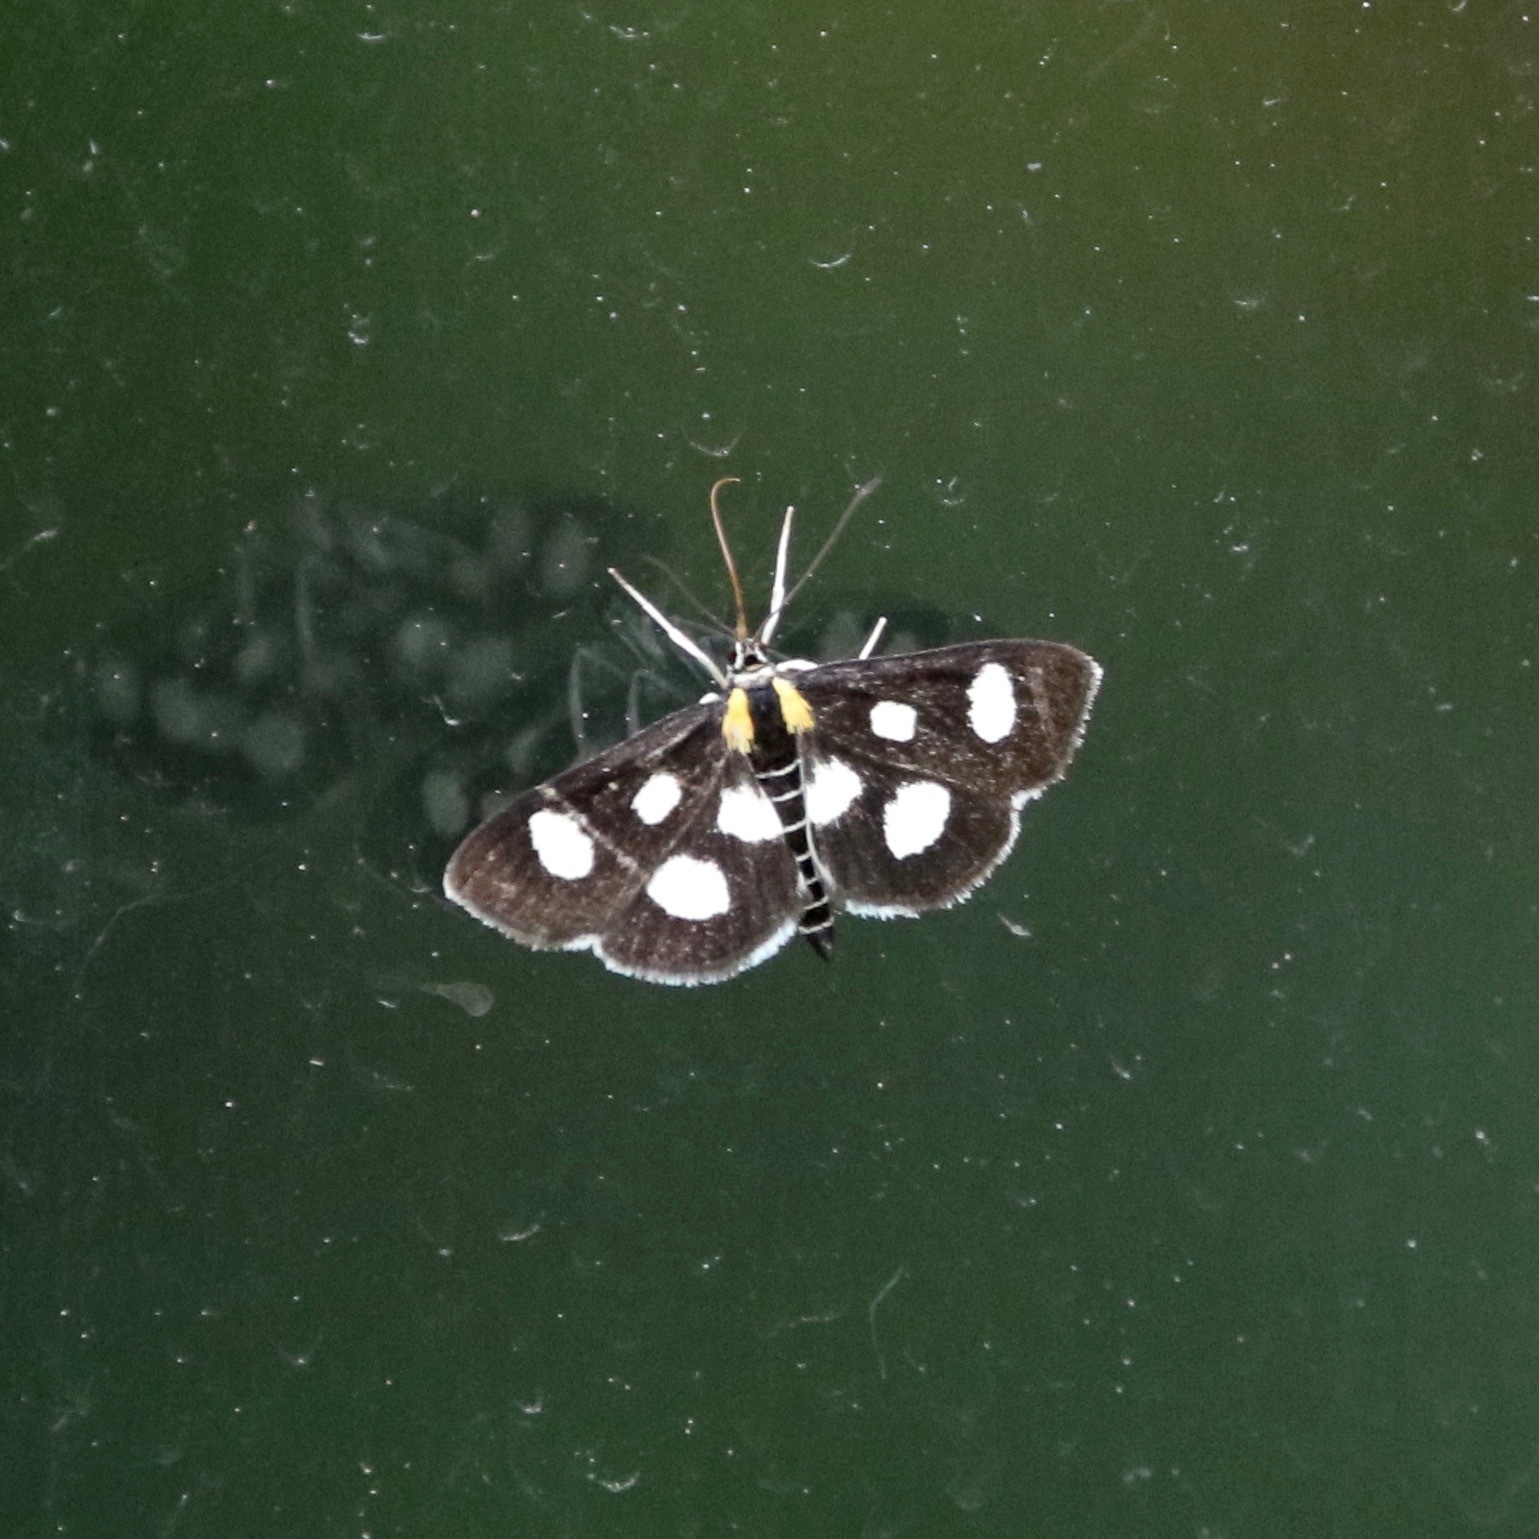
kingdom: Animalia
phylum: Arthropoda
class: Insecta
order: Lepidoptera
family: Crambidae
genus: Anania
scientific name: Anania funebris
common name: White-spotted sable moth
